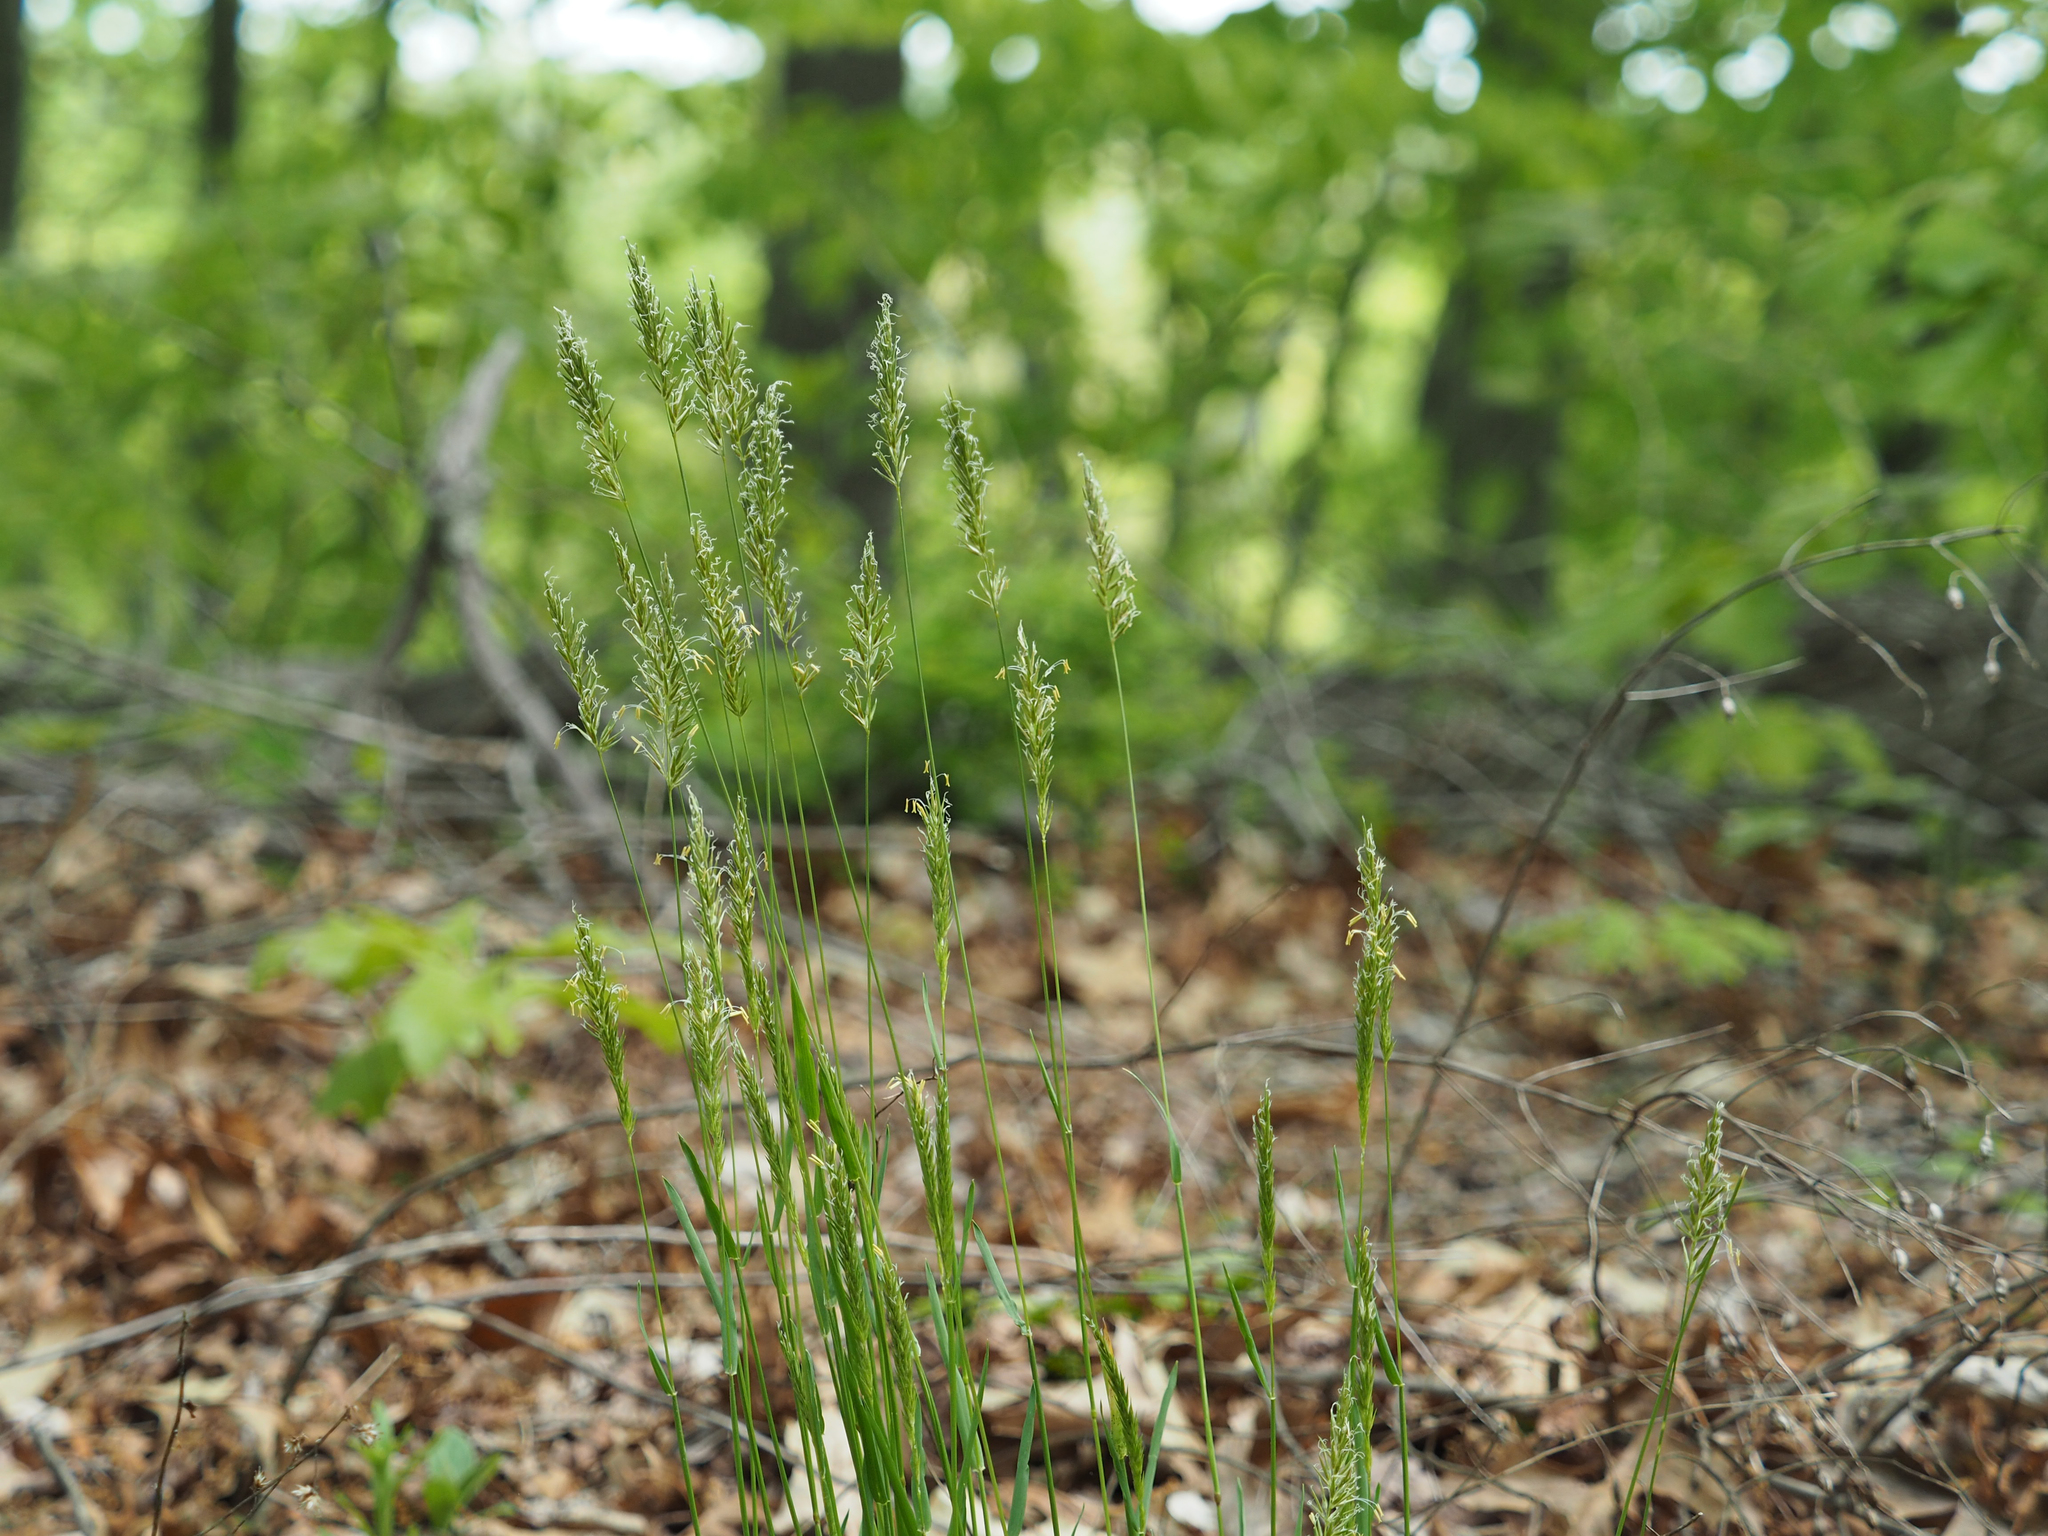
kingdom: Plantae
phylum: Tracheophyta
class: Liliopsida
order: Poales
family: Poaceae
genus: Anthoxanthum
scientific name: Anthoxanthum odoratum
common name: Sweet vernalgrass
